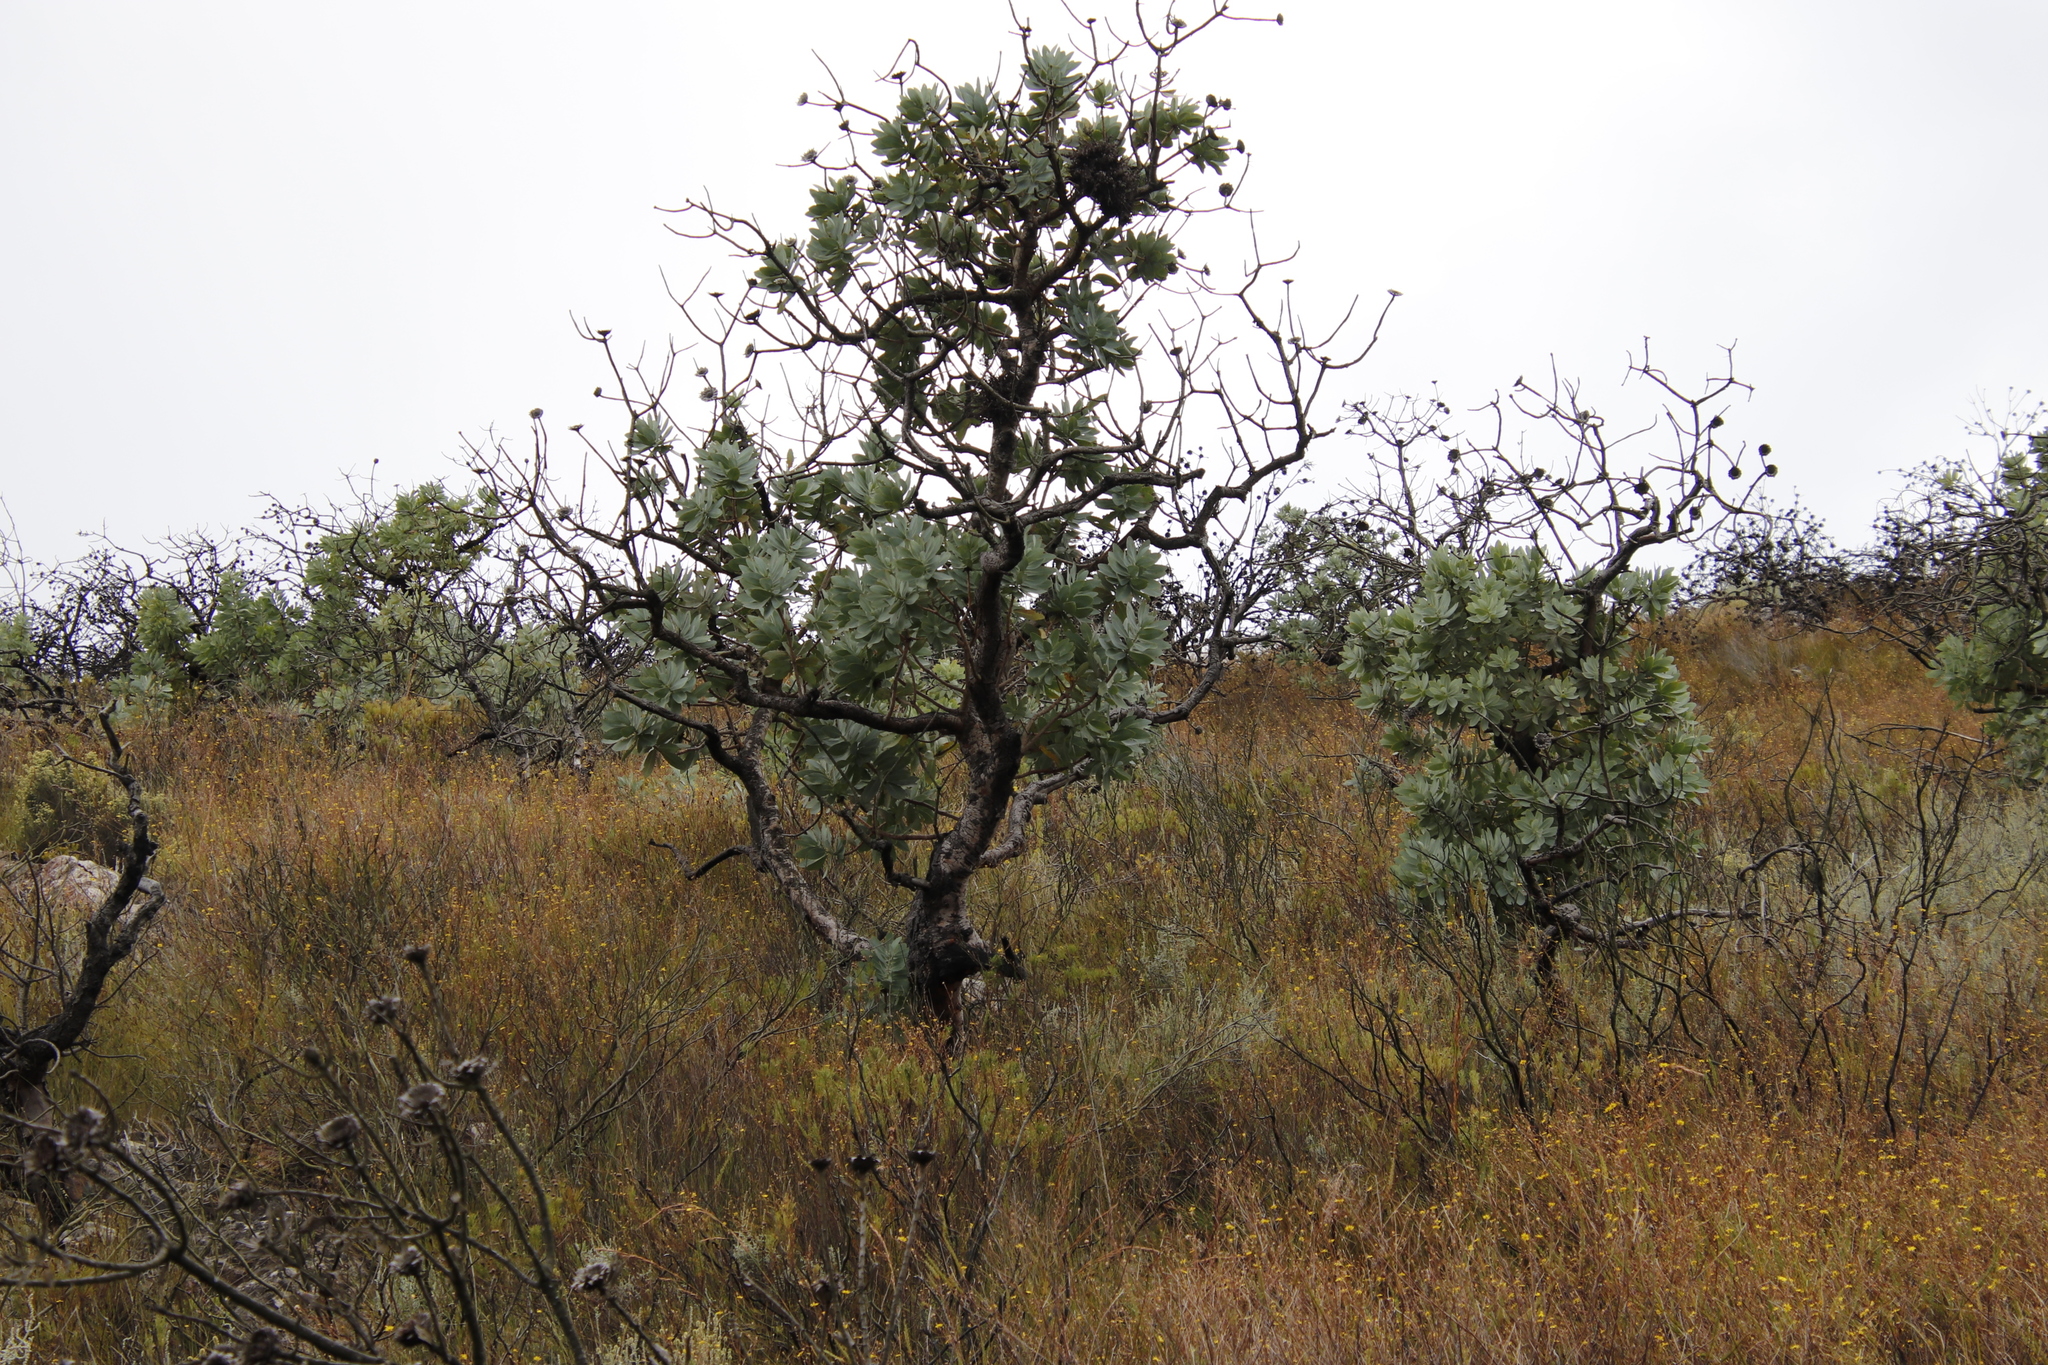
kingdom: Plantae
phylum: Tracheophyta
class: Magnoliopsida
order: Proteales
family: Proteaceae
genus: Protea
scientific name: Protea nitida
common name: Tree protea
